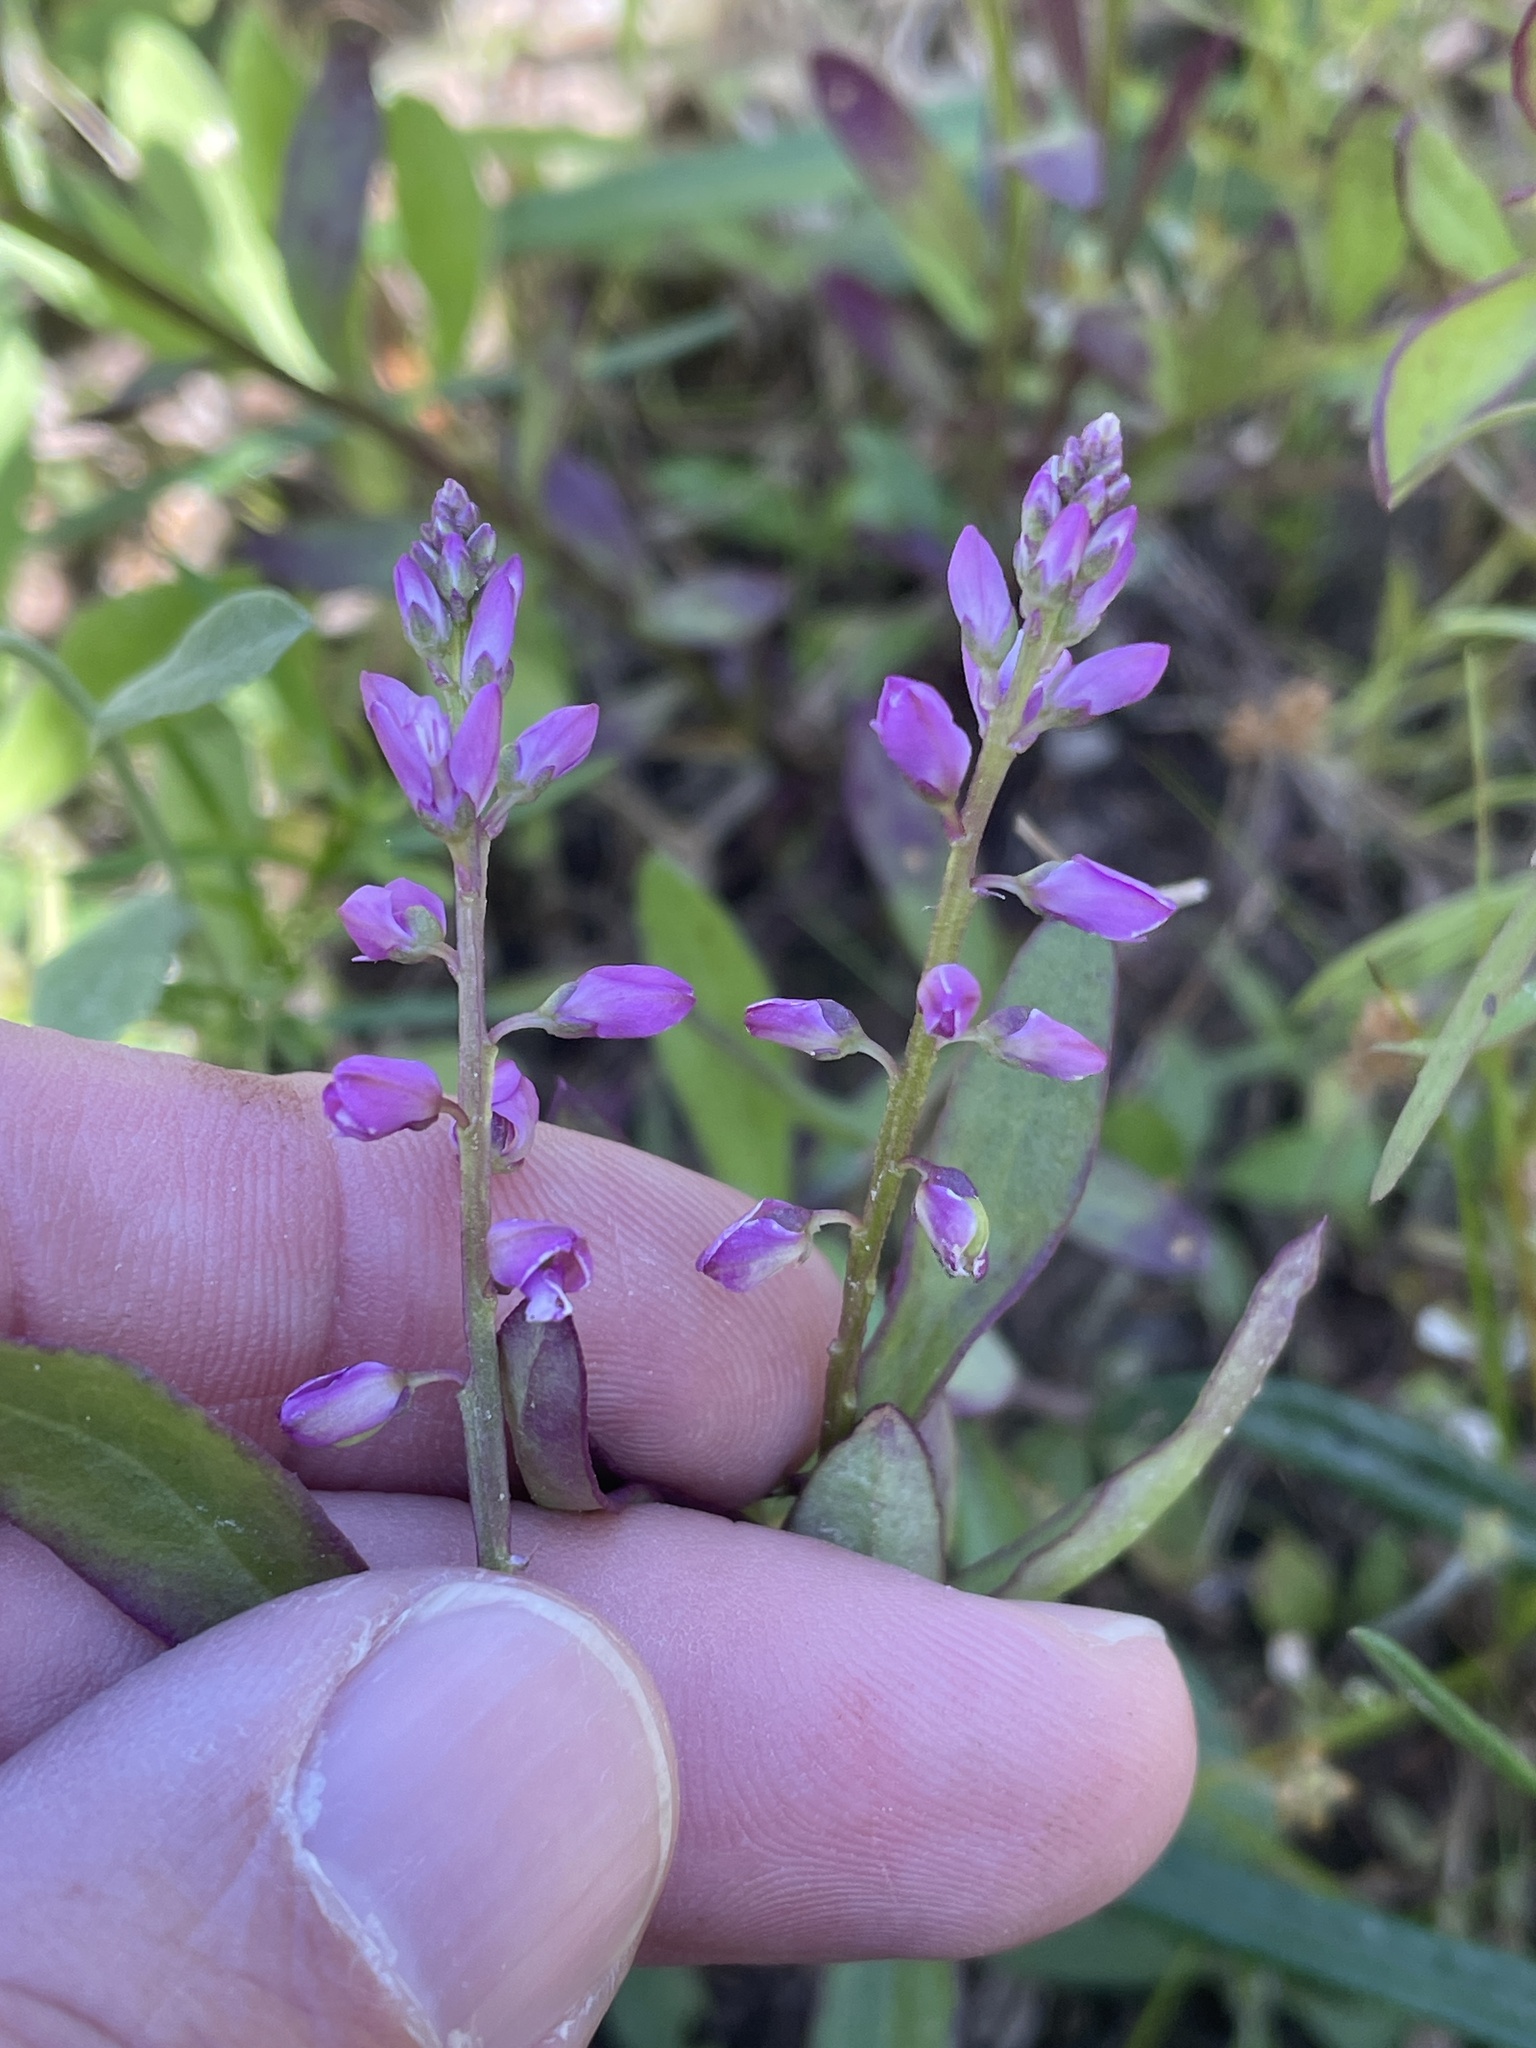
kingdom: Plantae
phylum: Tracheophyta
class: Magnoliopsida
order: Fabales
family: Polygalaceae
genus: Polygala
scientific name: Polygala polygama
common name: Bitter milkwort
